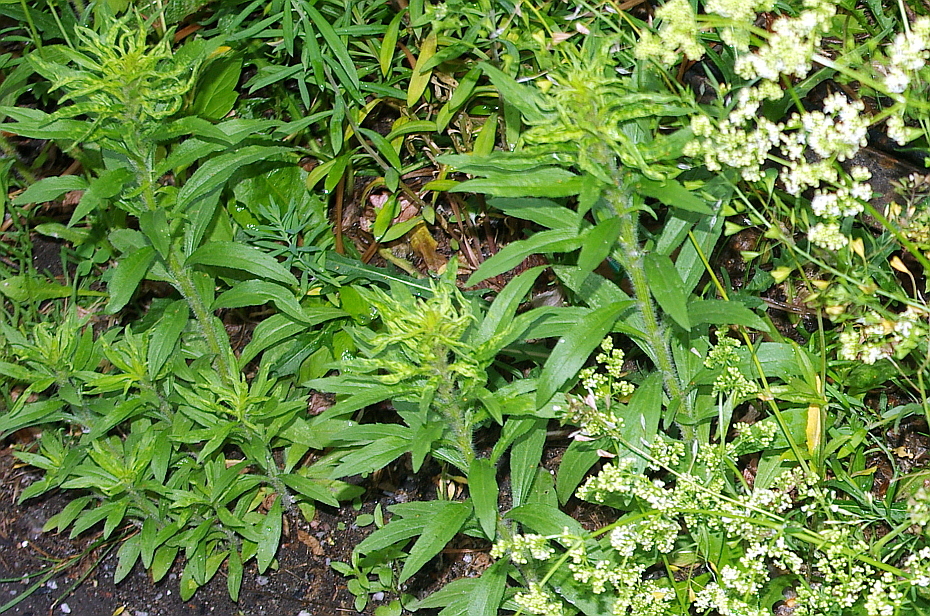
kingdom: Plantae
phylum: Tracheophyta
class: Magnoliopsida
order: Asterales
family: Asteraceae
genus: Erigeron
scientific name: Erigeron canadensis
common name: Canadian fleabane
